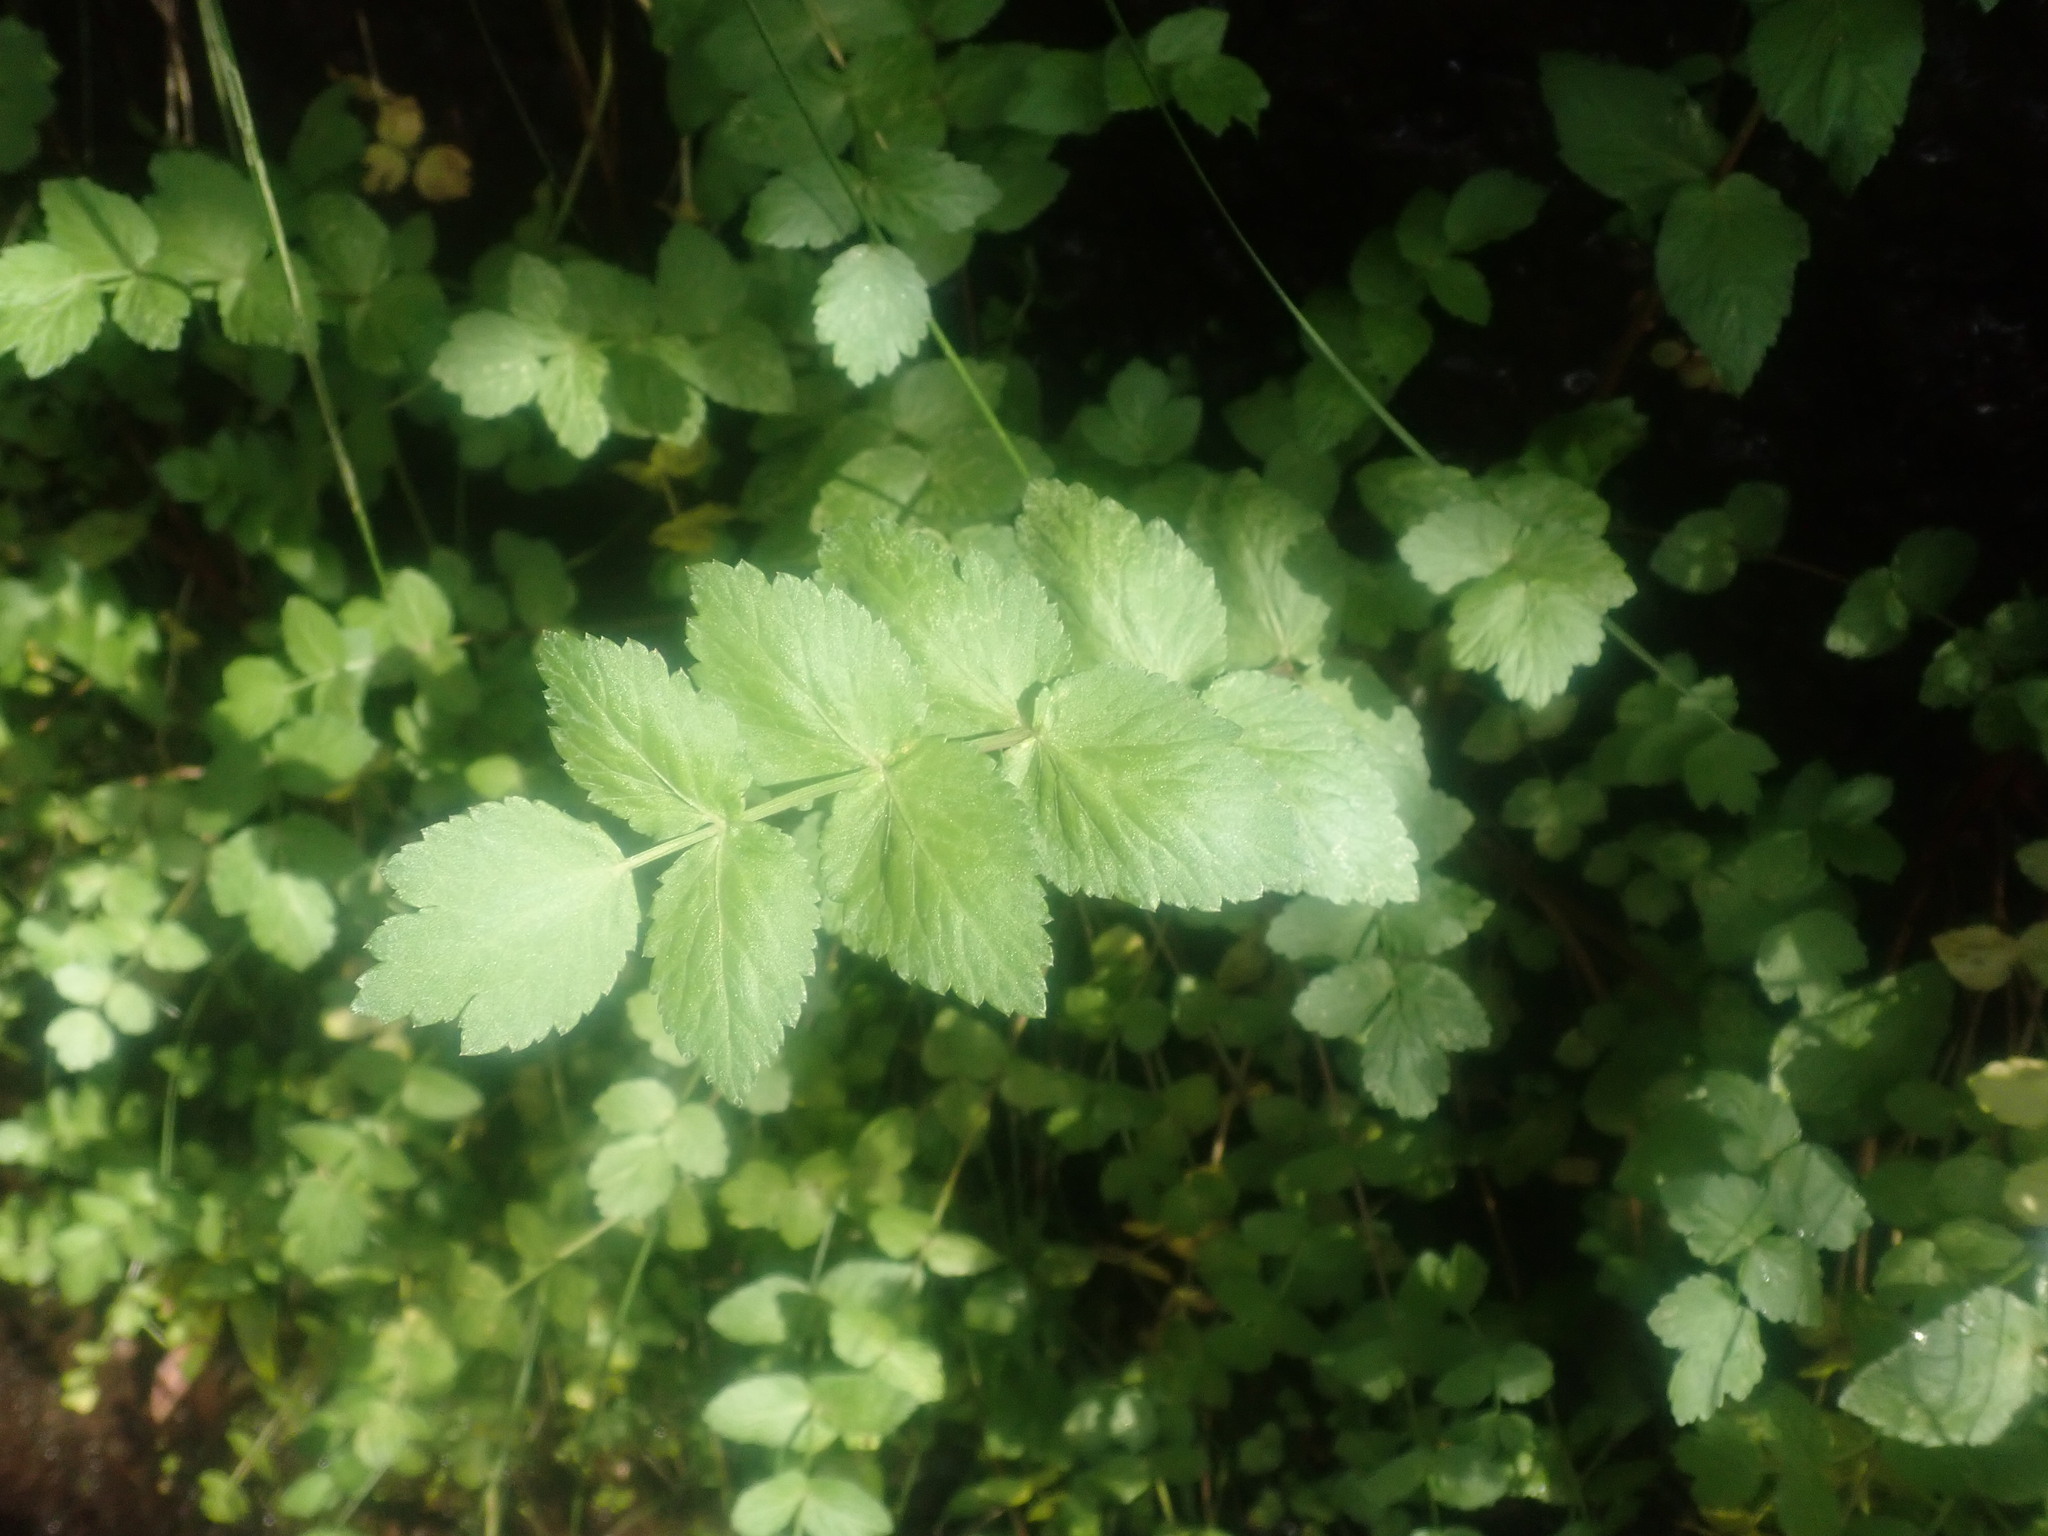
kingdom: Plantae
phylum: Tracheophyta
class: Magnoliopsida
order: Apiales
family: Apiaceae
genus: Helosciadium
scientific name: Helosciadium nodiflorum
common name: Fool's-watercress
